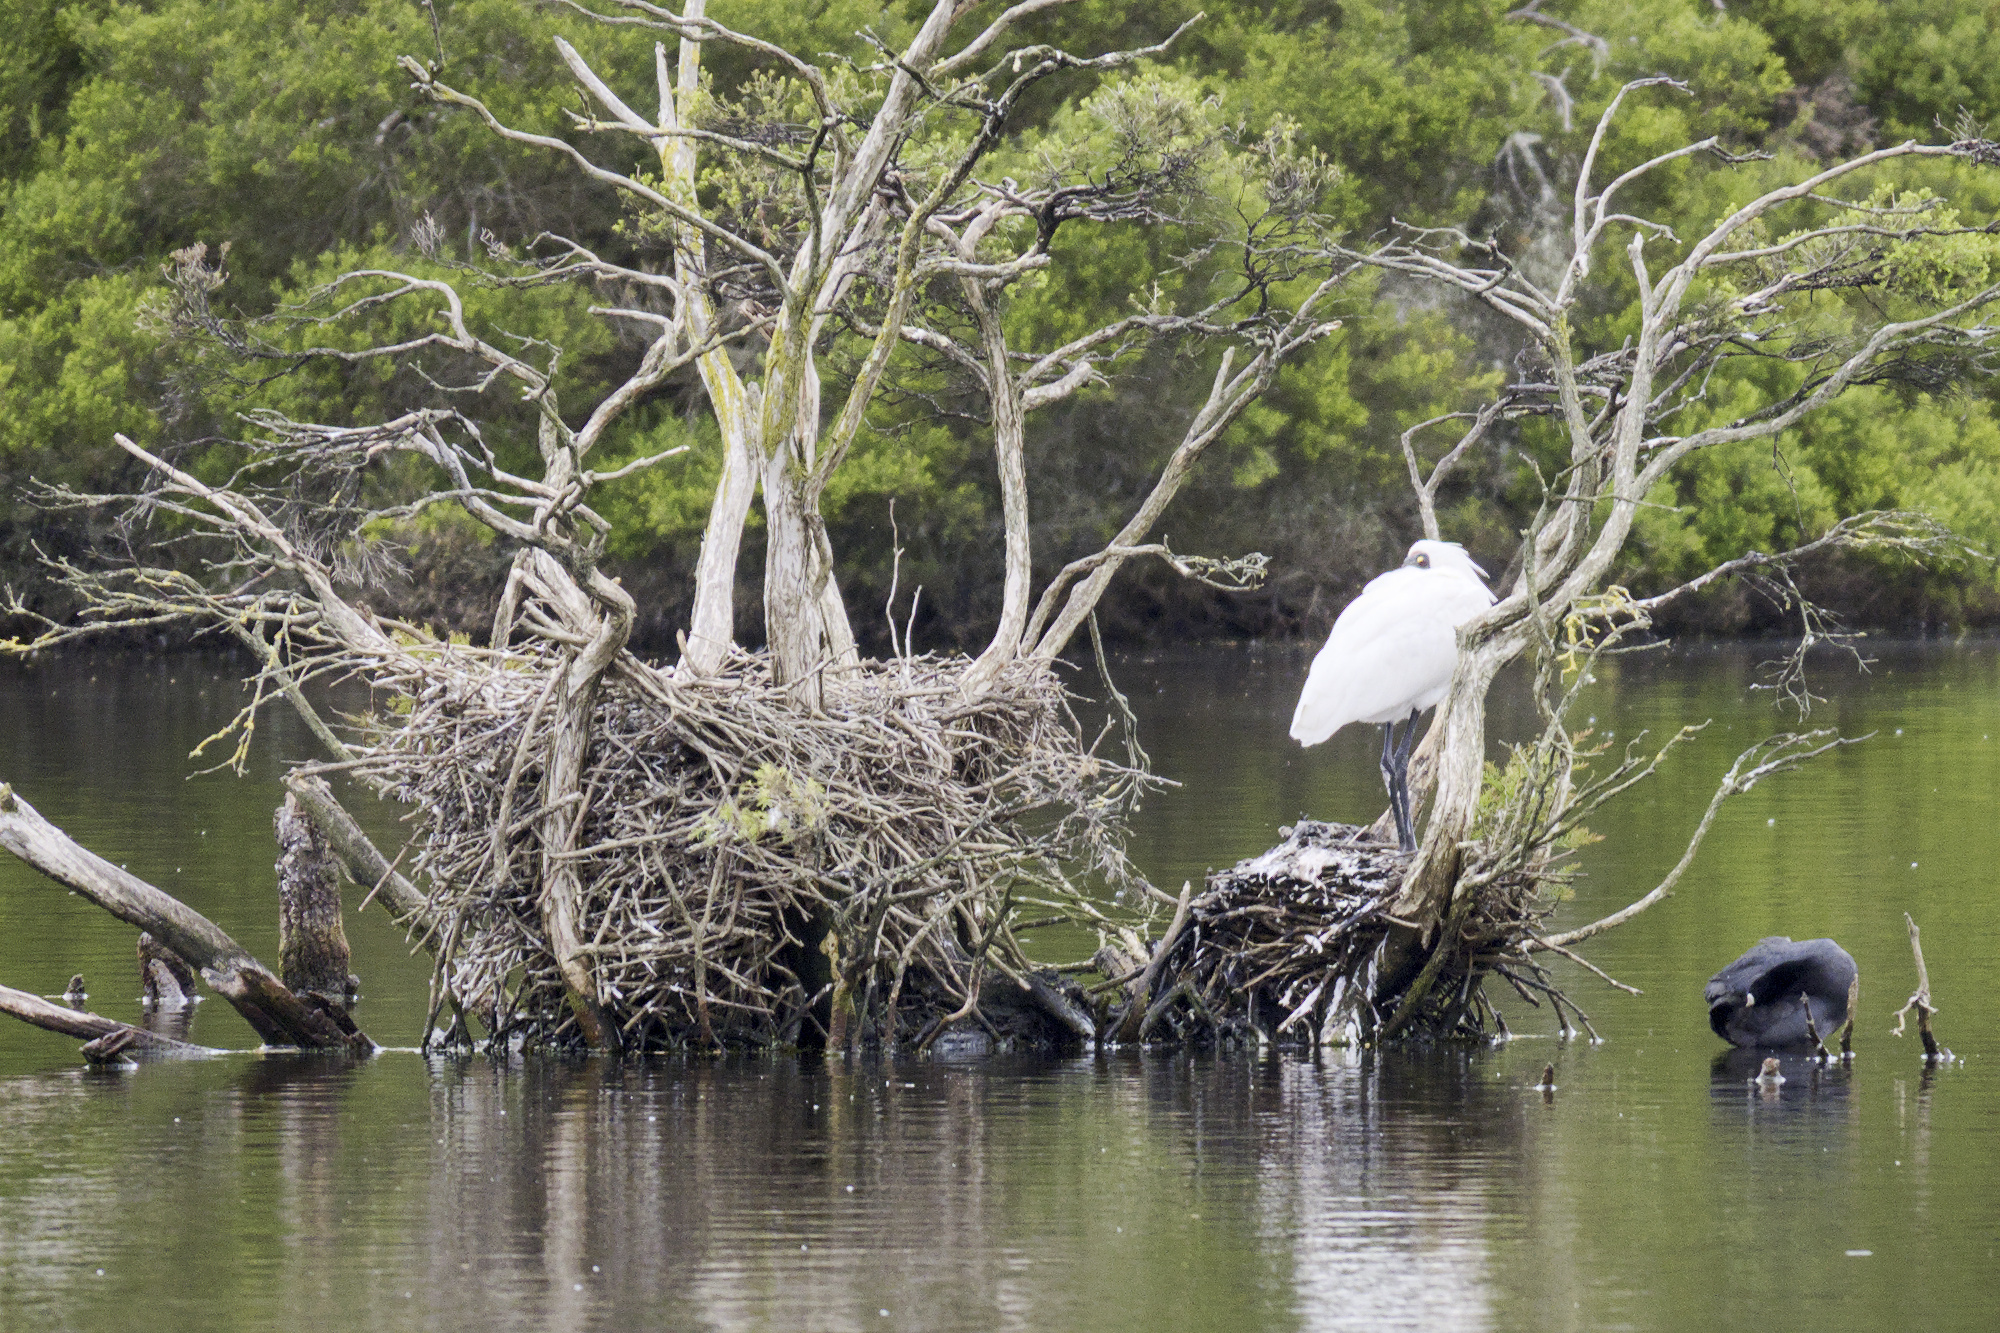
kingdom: Animalia
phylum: Chordata
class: Aves
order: Pelecaniformes
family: Threskiornithidae
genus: Platalea
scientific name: Platalea regia
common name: Royal spoonbill
